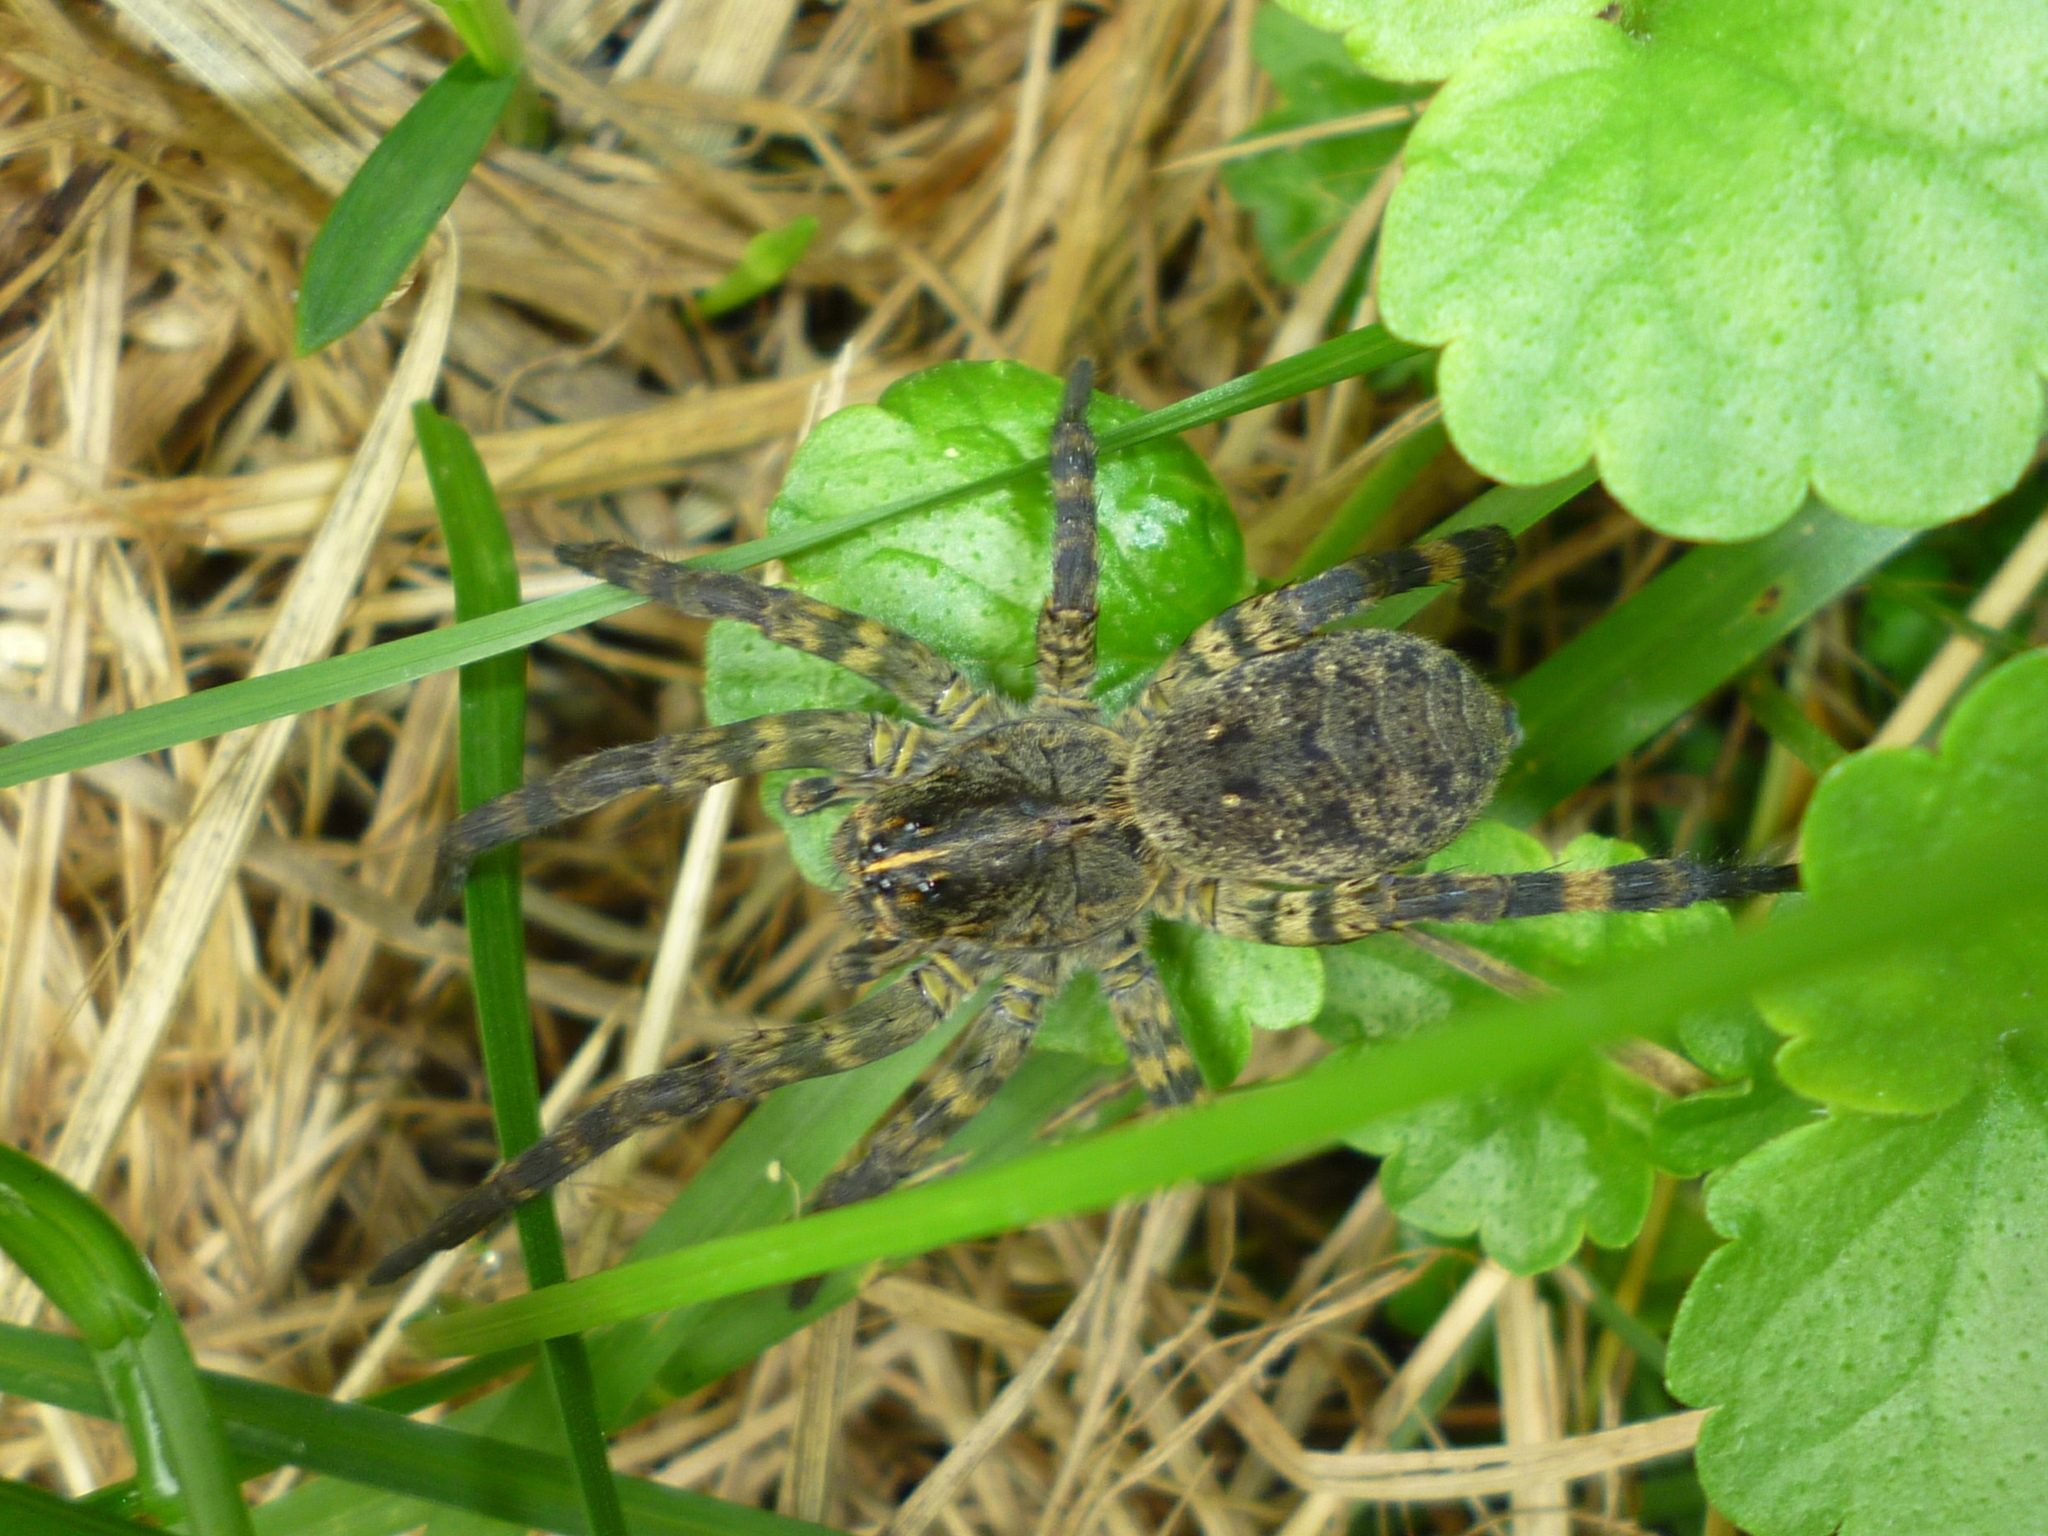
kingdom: Animalia
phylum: Arthropoda
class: Arachnida
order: Araneae
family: Lycosidae
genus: Tigrosa
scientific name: Tigrosa aspersa
